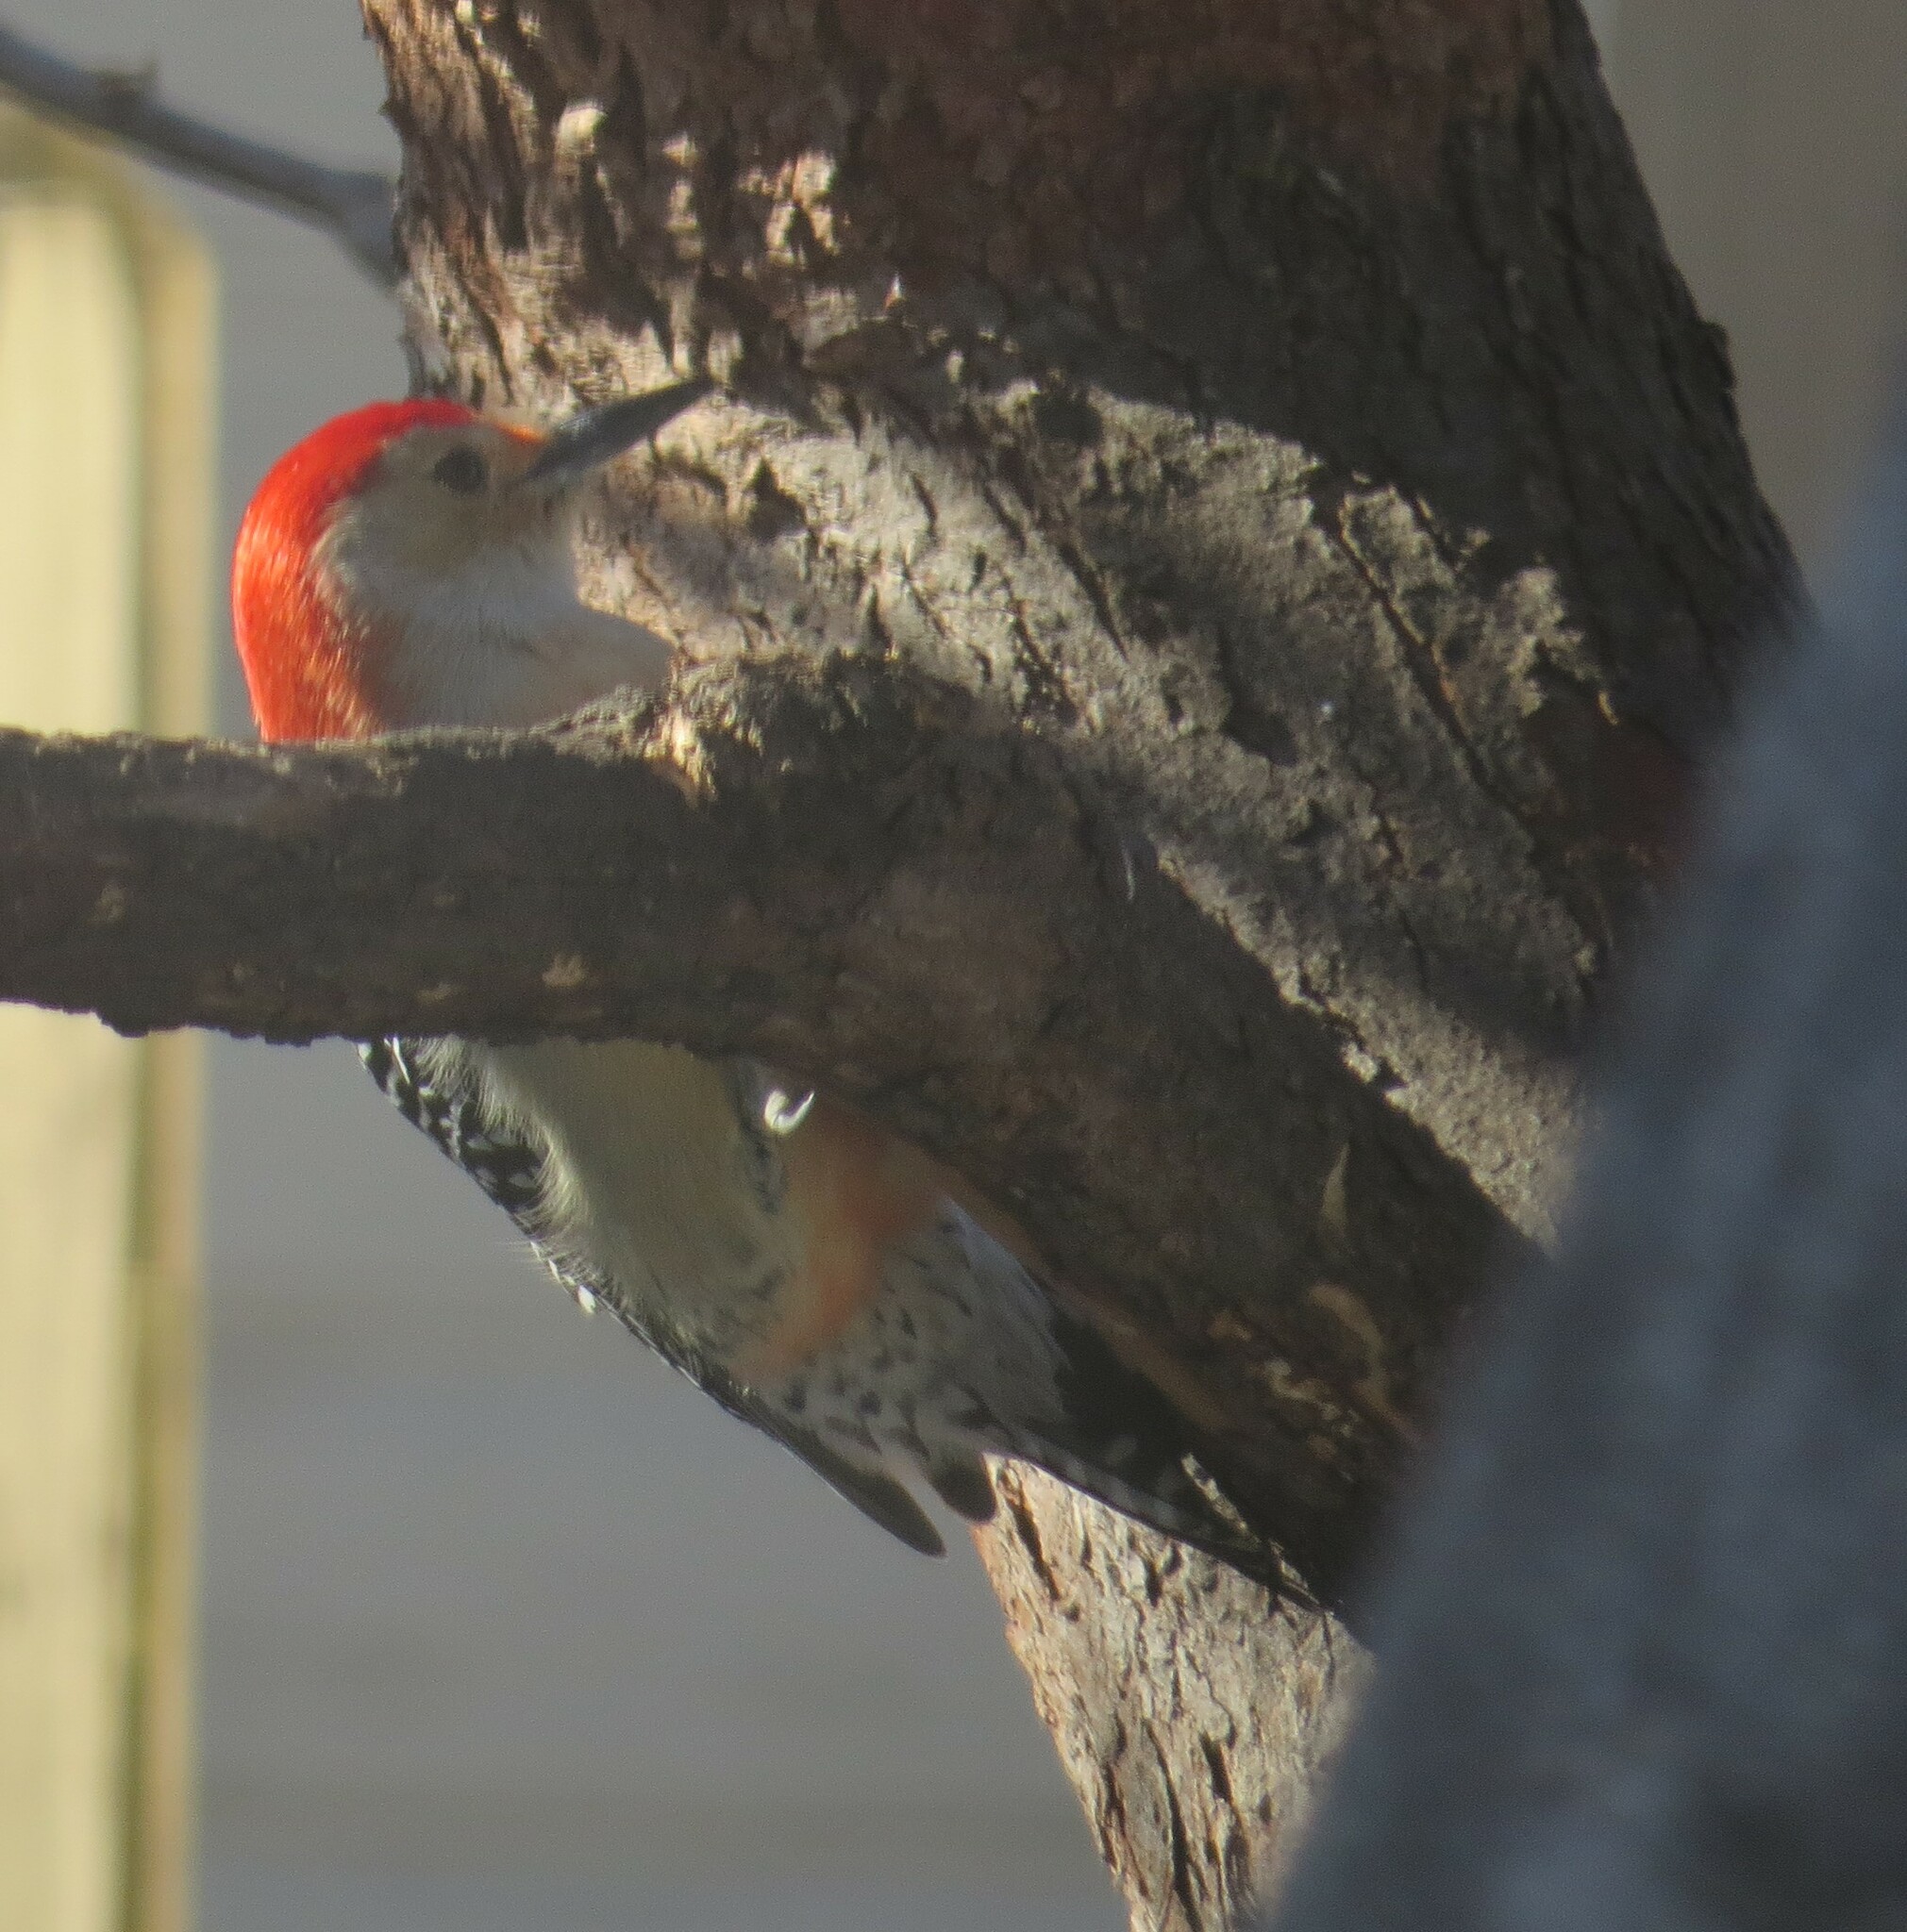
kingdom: Animalia
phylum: Chordata
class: Aves
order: Piciformes
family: Picidae
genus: Melanerpes
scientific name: Melanerpes carolinus
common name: Red-bellied woodpecker
